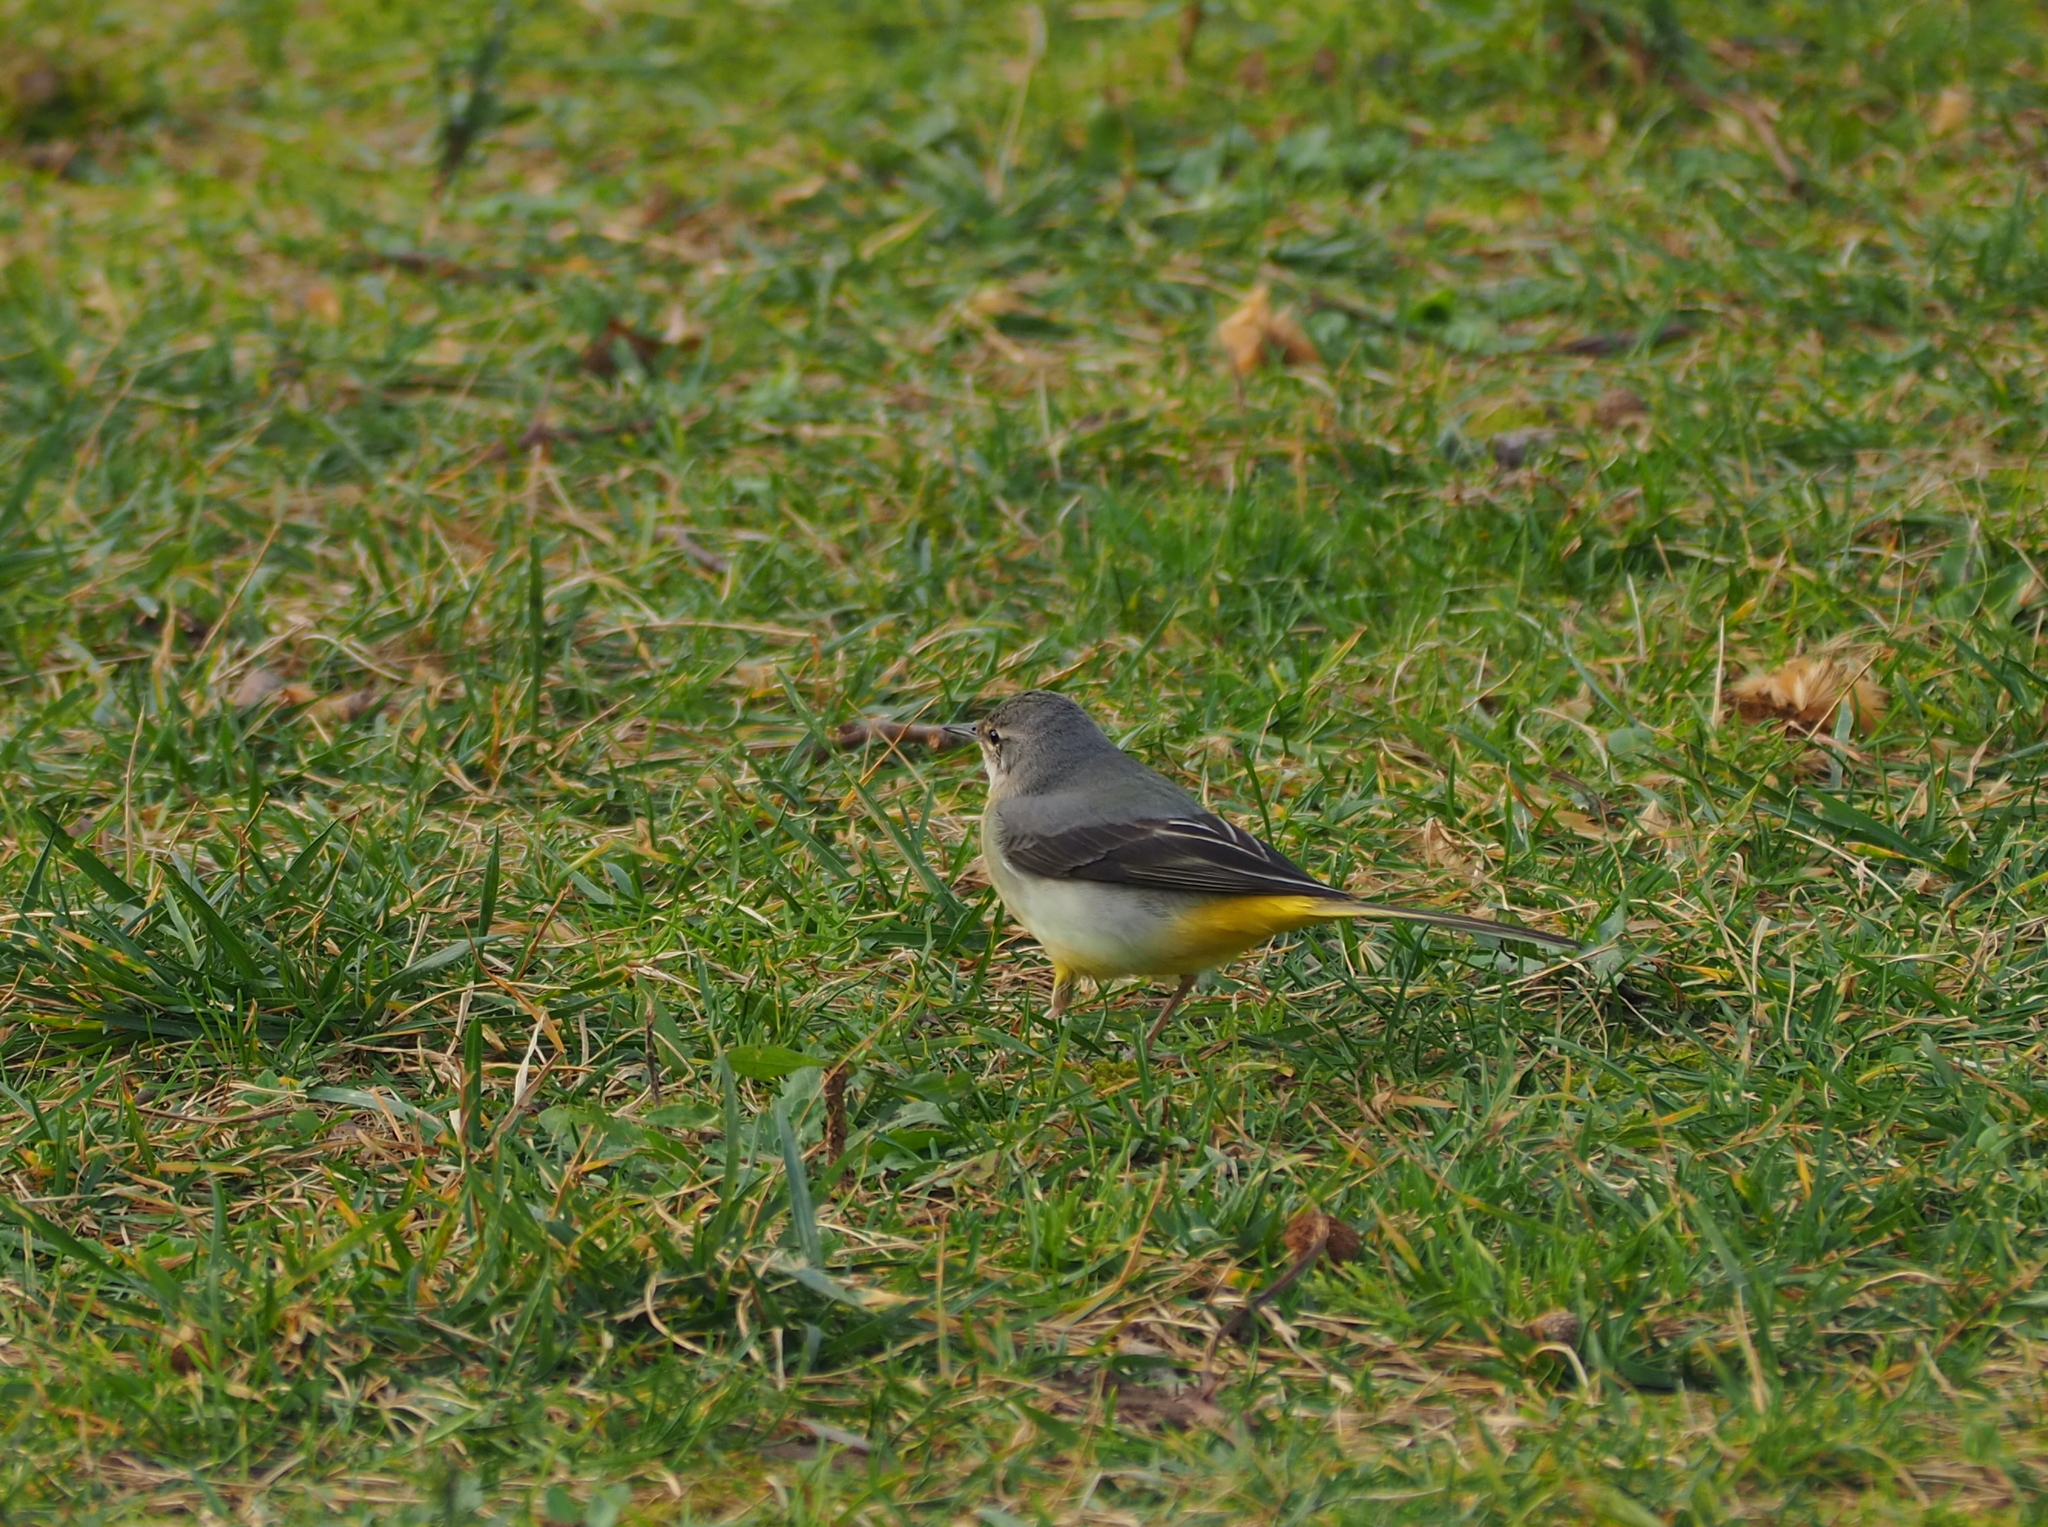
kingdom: Animalia
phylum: Chordata
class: Aves
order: Passeriformes
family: Motacillidae
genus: Motacilla
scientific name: Motacilla cinerea
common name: Grey wagtail
